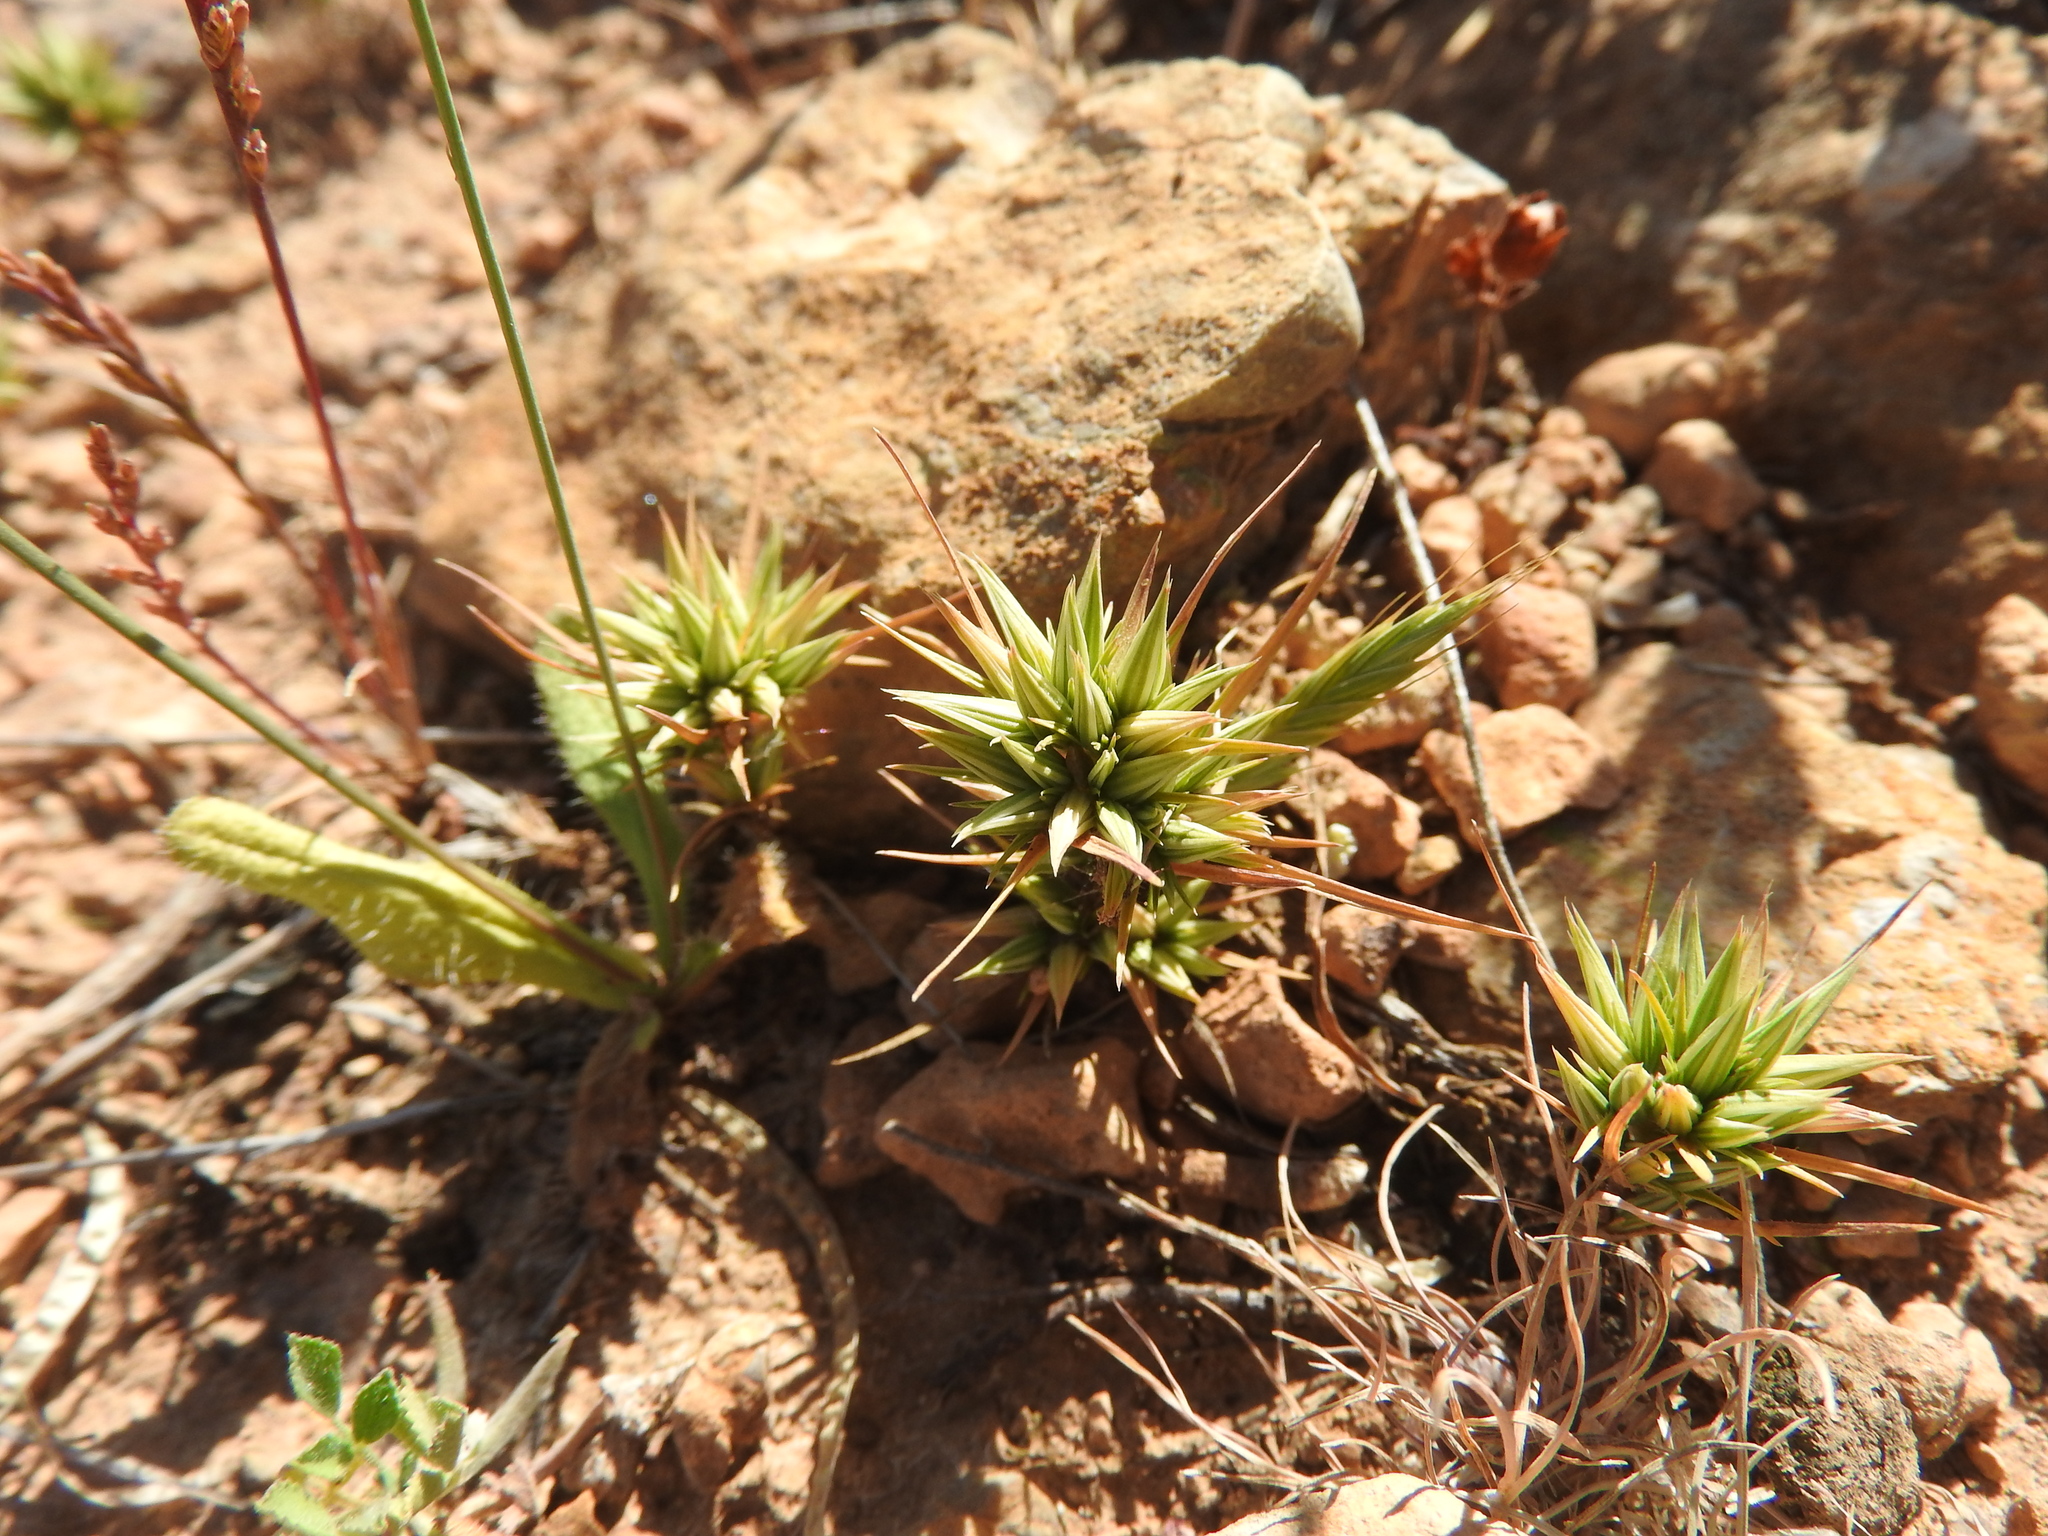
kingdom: Plantae
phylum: Tracheophyta
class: Magnoliopsida
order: Caryophyllales
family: Caryophyllaceae
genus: Minuartia
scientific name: Minuartia montana
